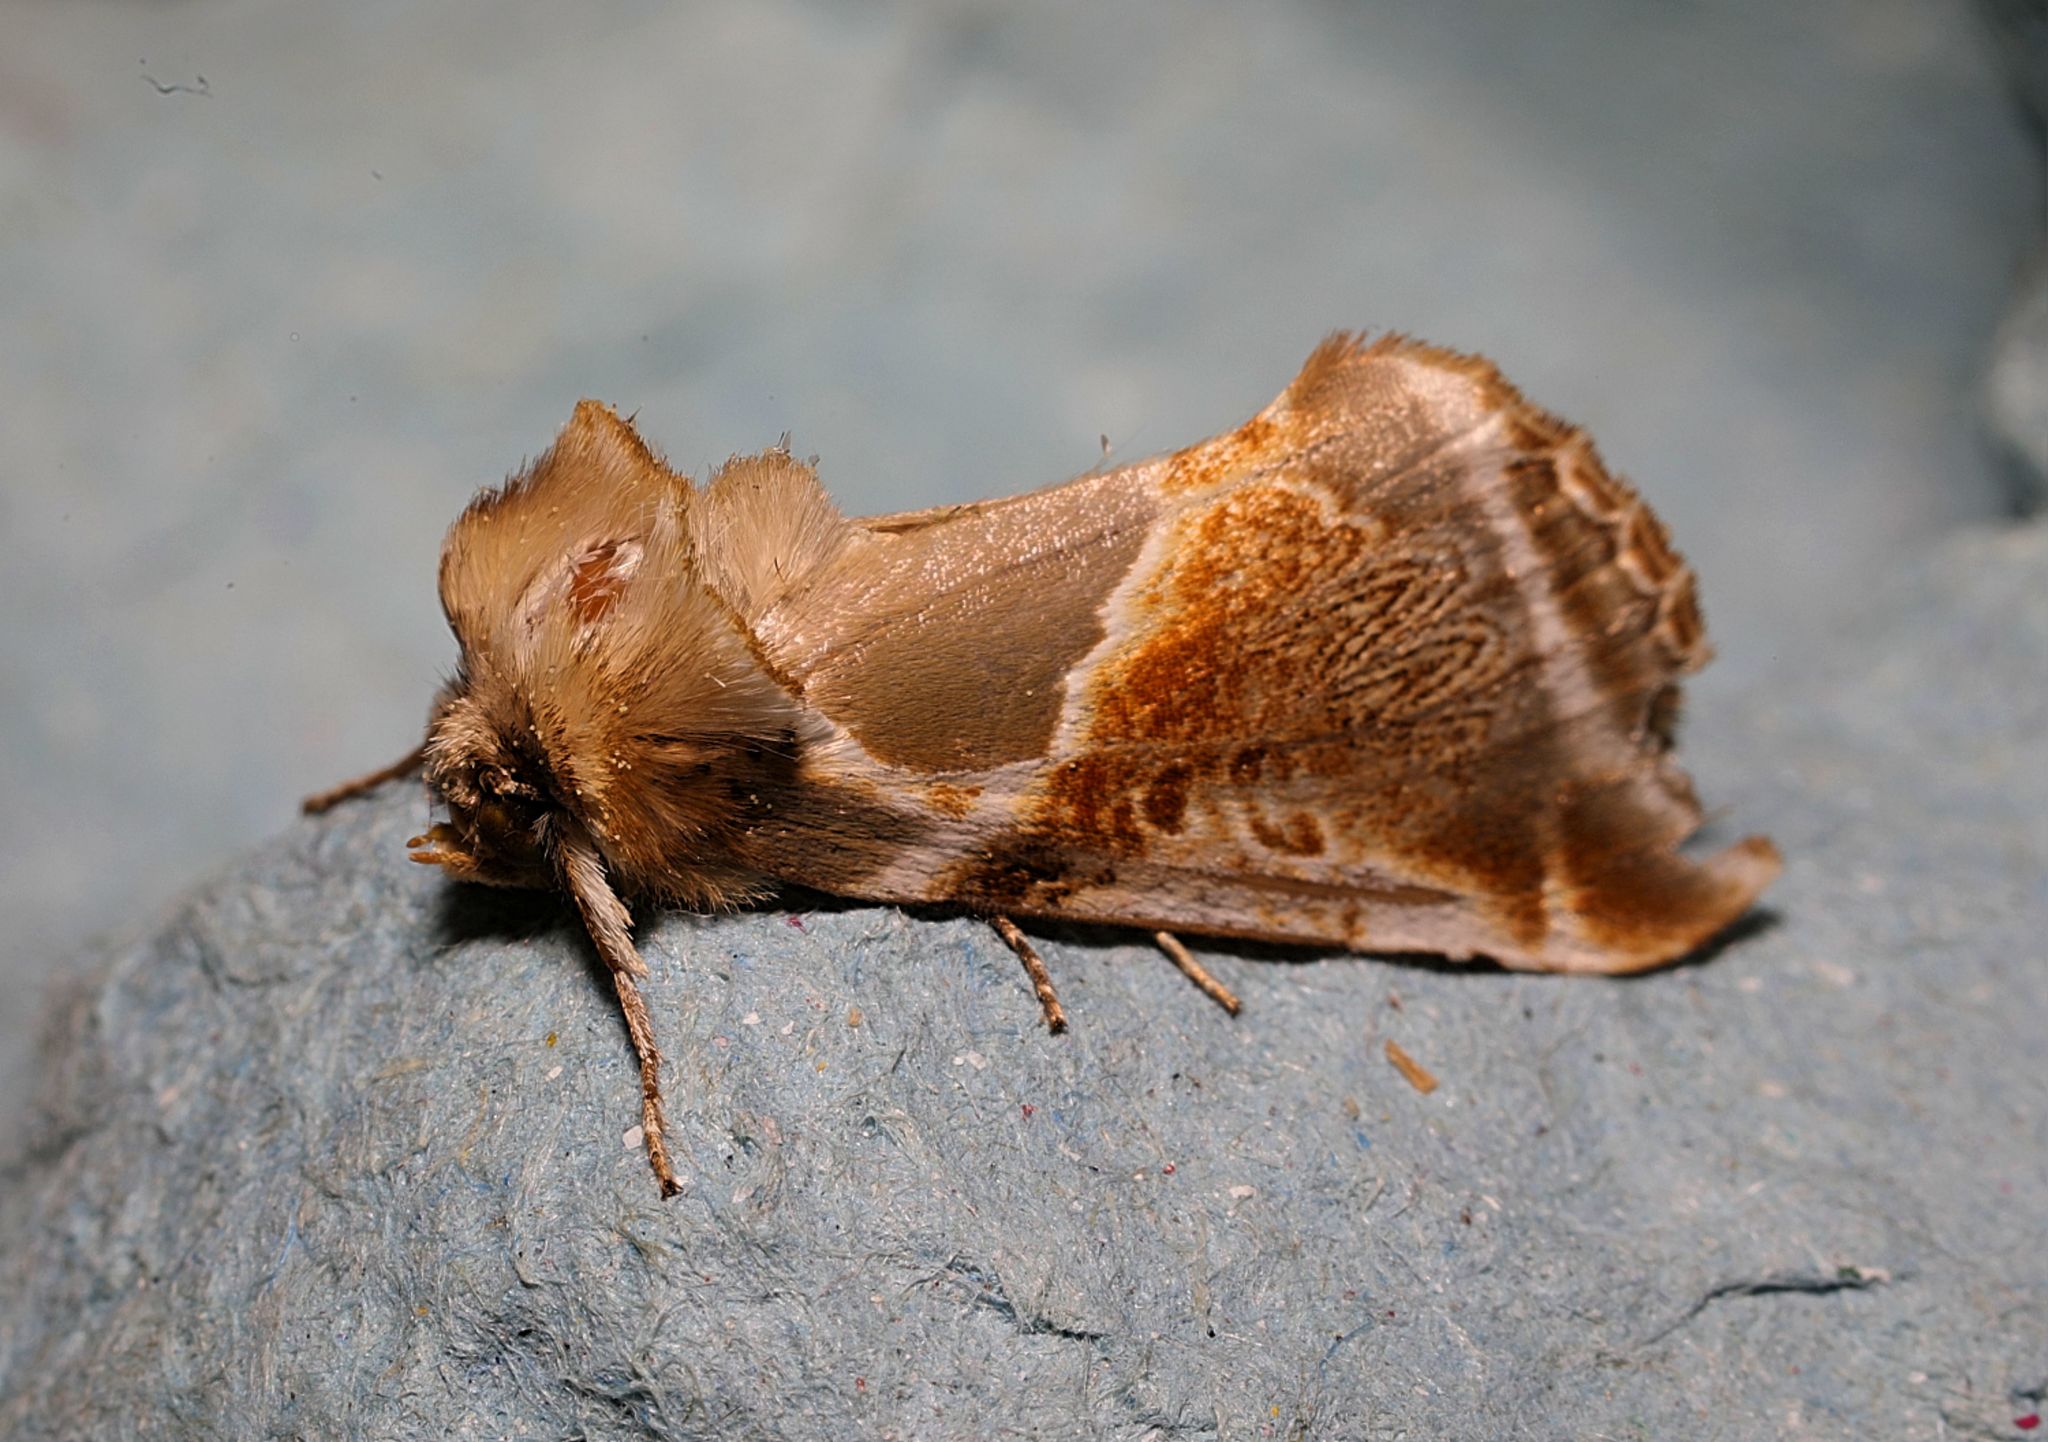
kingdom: Animalia
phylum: Arthropoda
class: Insecta
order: Lepidoptera
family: Drepanidae
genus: Habrosyne
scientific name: Habrosyne pyritoides
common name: Buff arches
